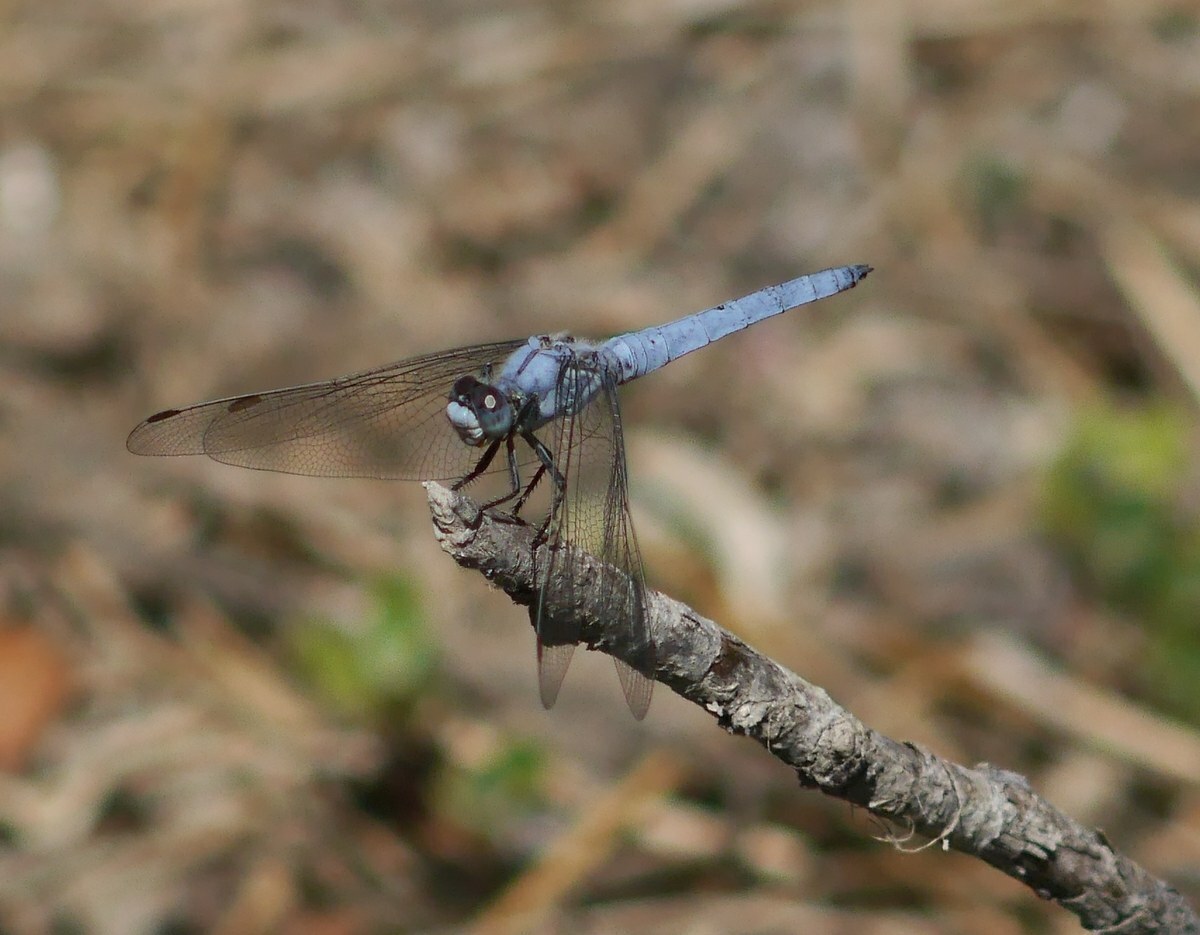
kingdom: Animalia
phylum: Arthropoda
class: Insecta
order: Odonata
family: Libellulidae
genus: Orthetrum
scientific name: Orthetrum brunneum
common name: Southern skimmer
